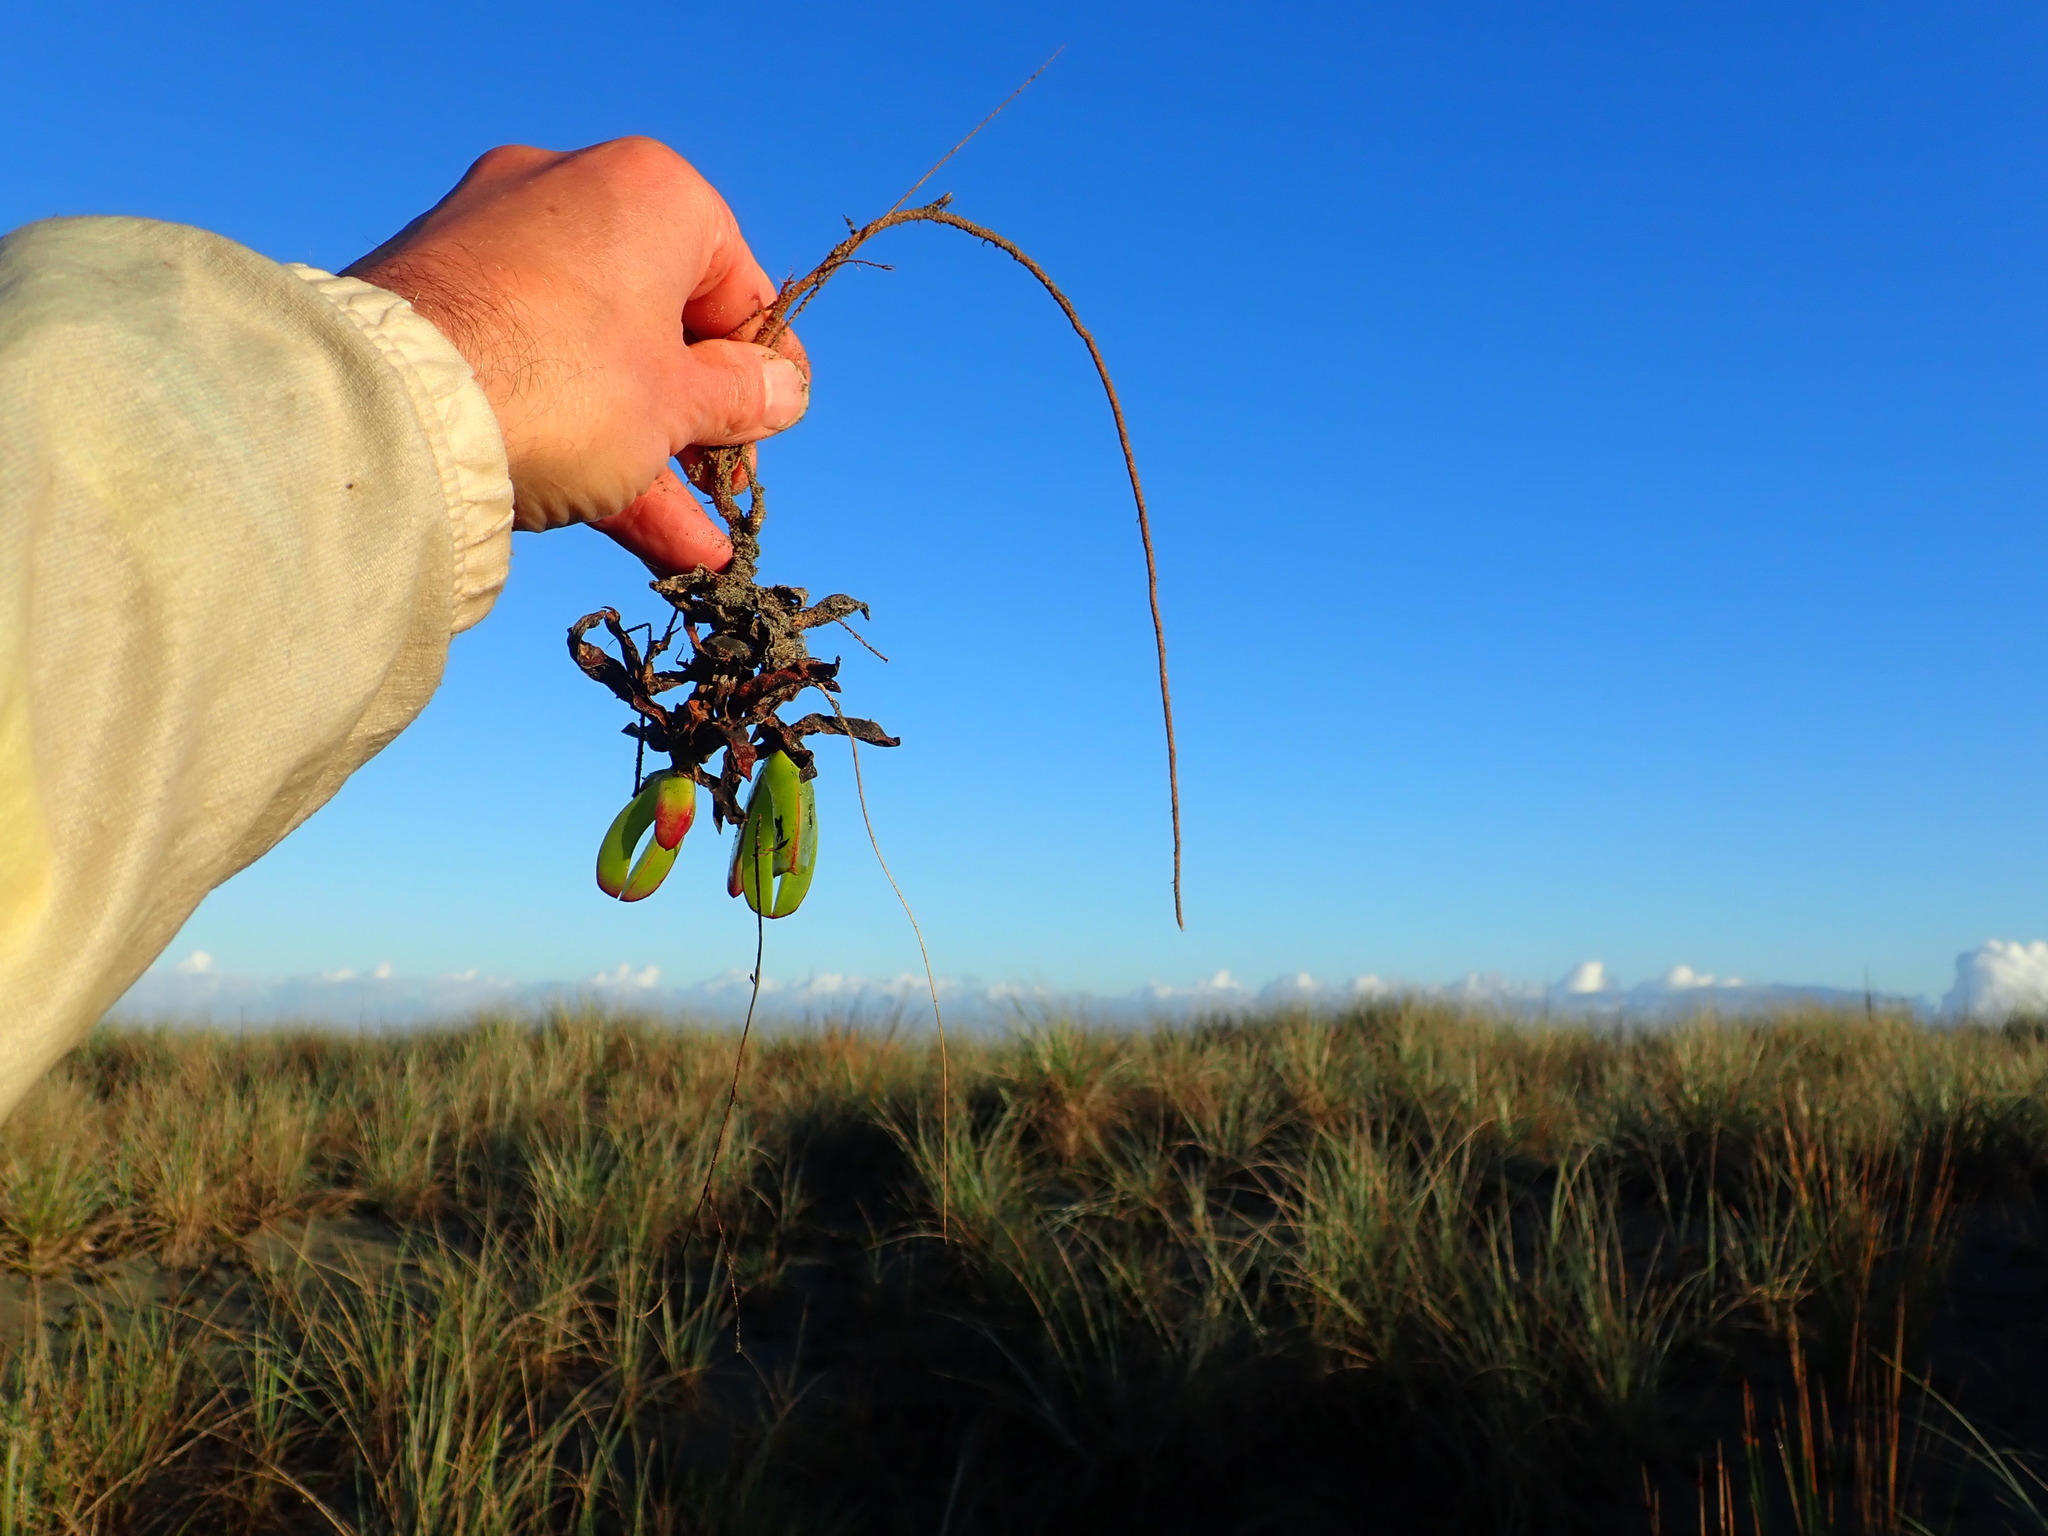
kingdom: Plantae
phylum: Tracheophyta
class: Magnoliopsida
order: Caryophyllales
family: Aizoaceae
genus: Carpobrotus
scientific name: Carpobrotus edulis
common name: Hottentot-fig
